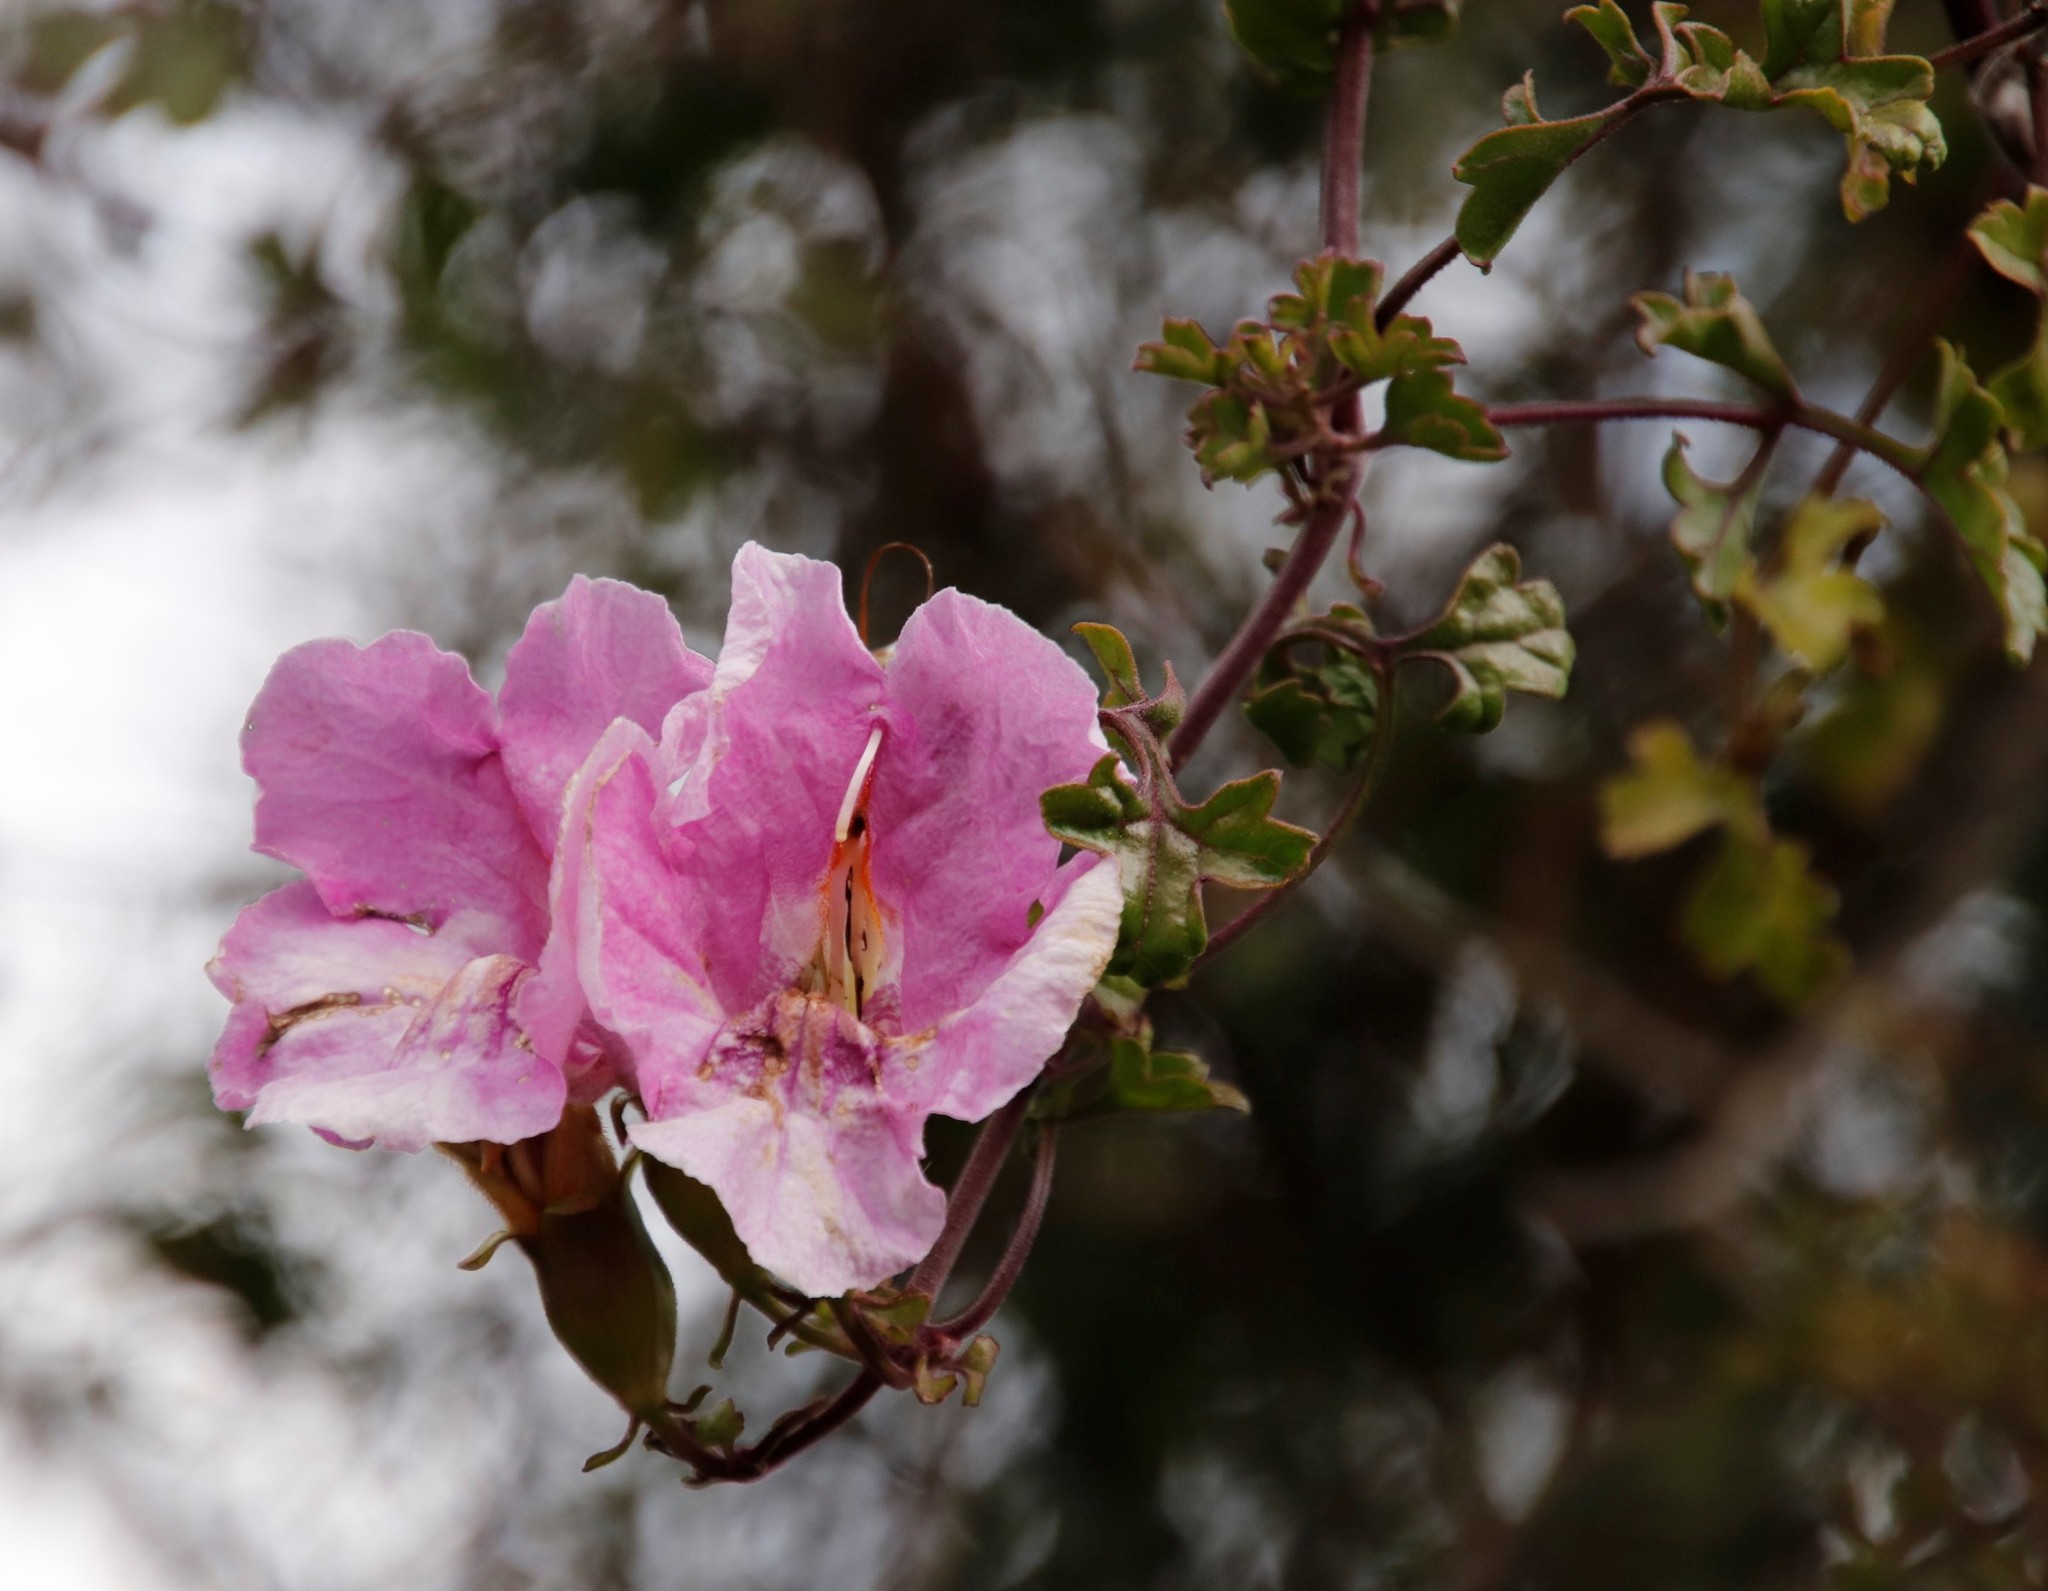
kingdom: Plantae
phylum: Tracheophyta
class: Magnoliopsida
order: Lamiales
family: Orobanchaceae
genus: Buttonia
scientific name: Buttonia superba
